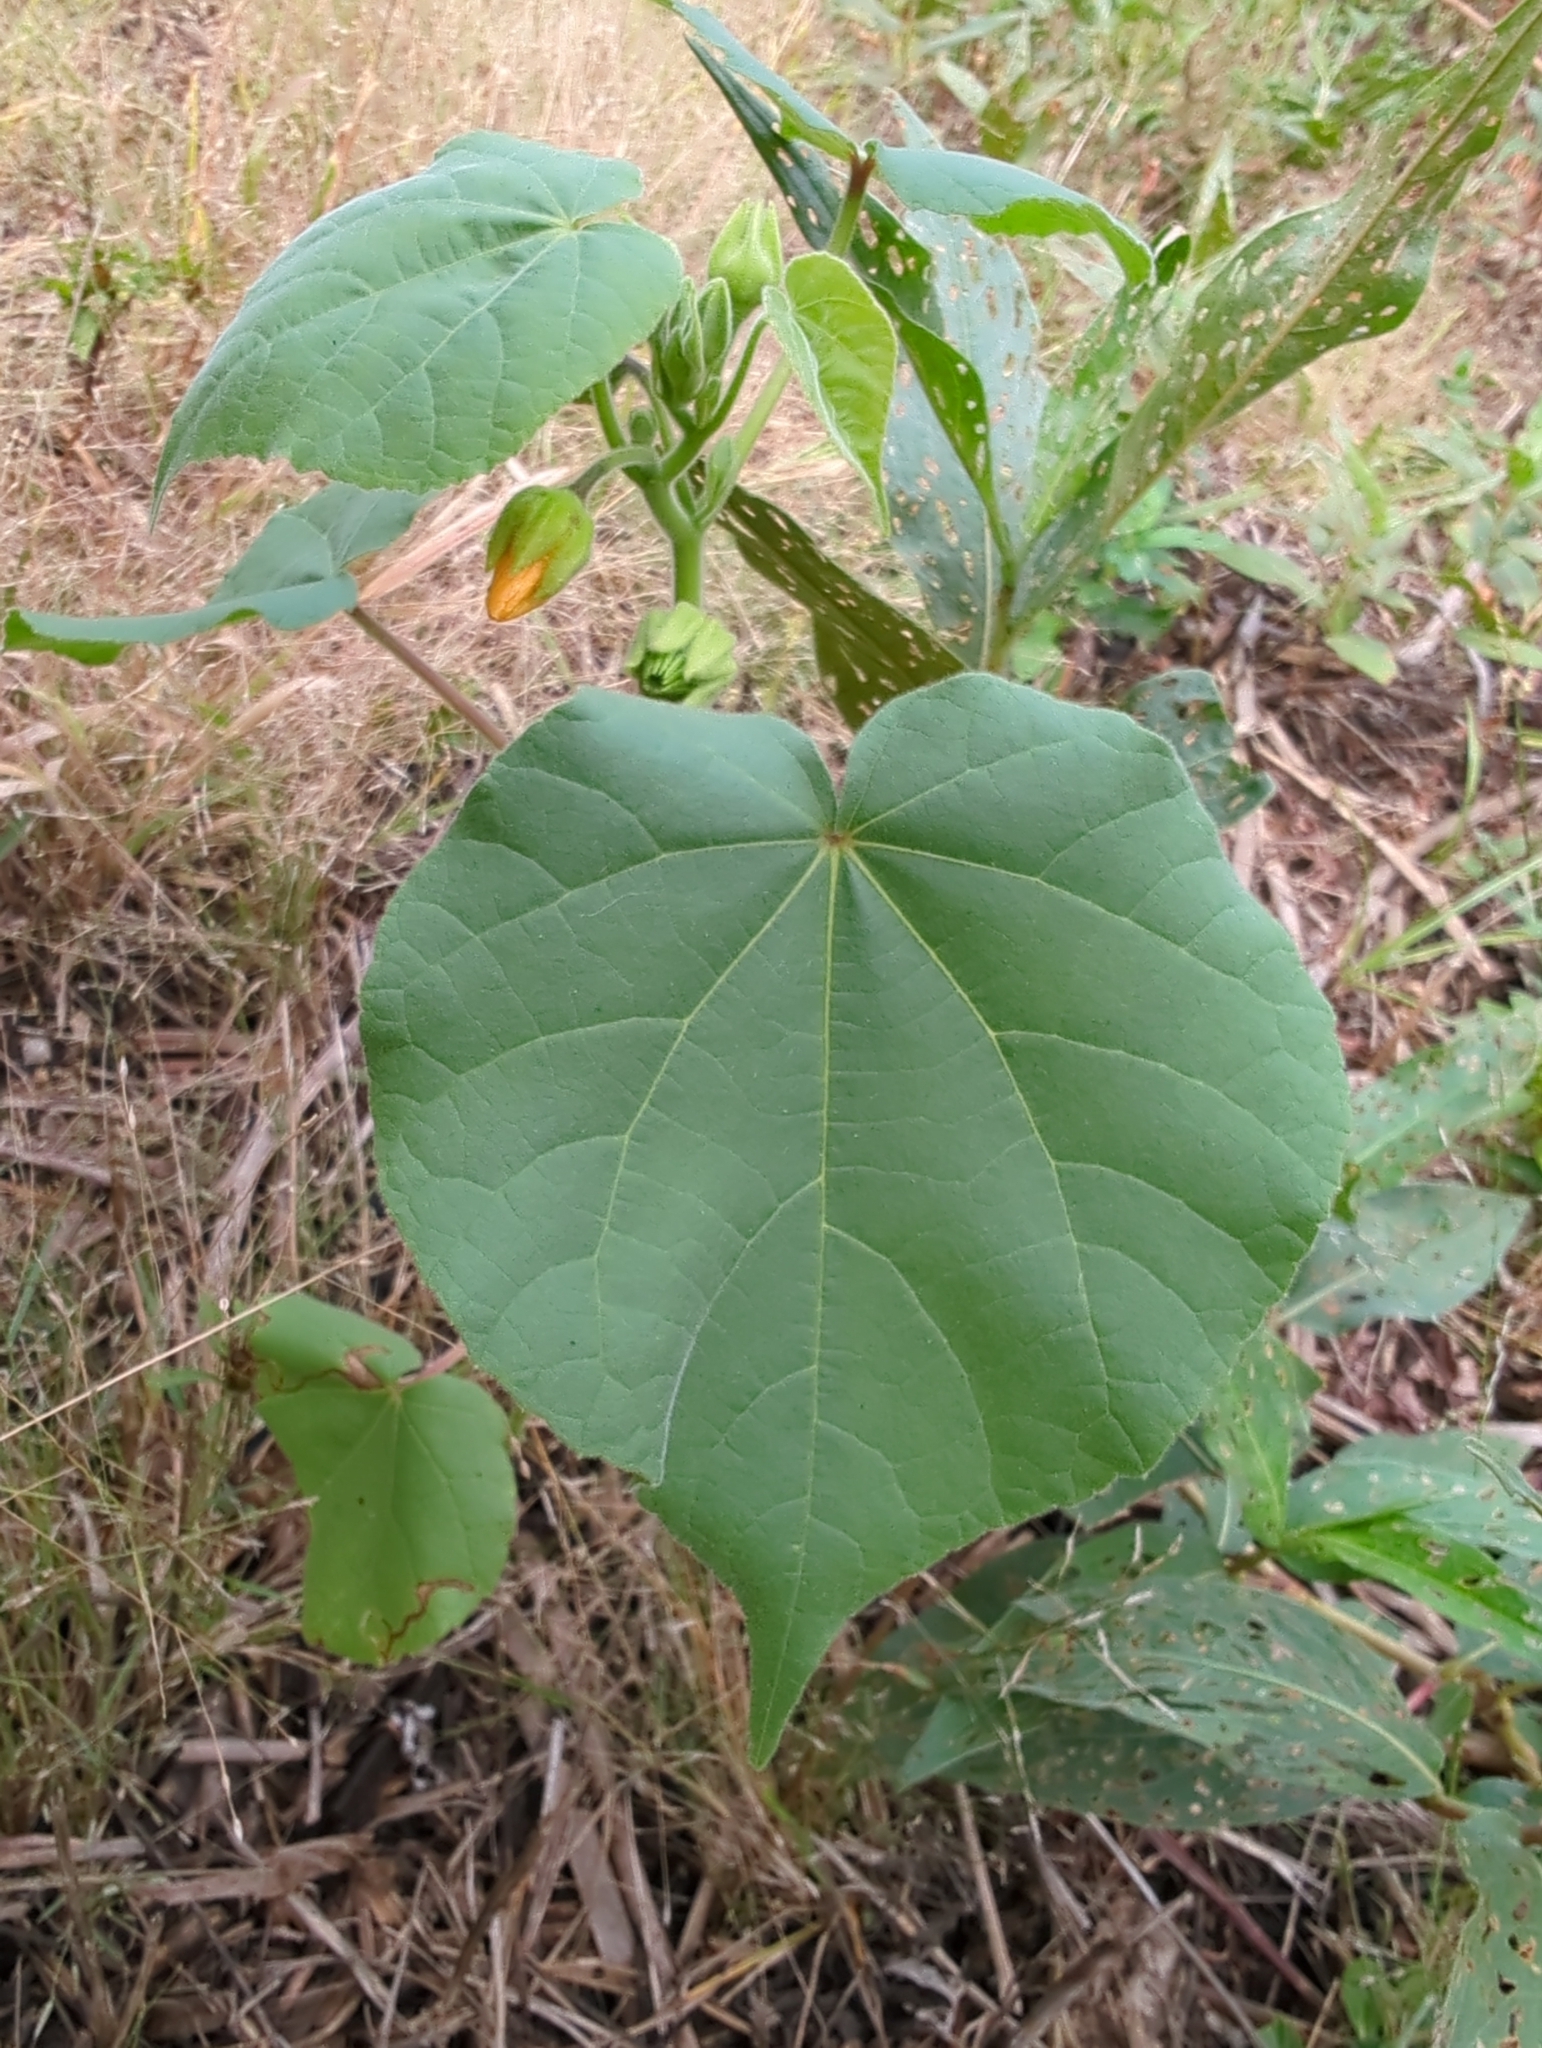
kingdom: Plantae
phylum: Tracheophyta
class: Magnoliopsida
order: Malvales
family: Malvaceae
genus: Abutilon
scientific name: Abutilon theophrasti
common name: Velvetleaf
